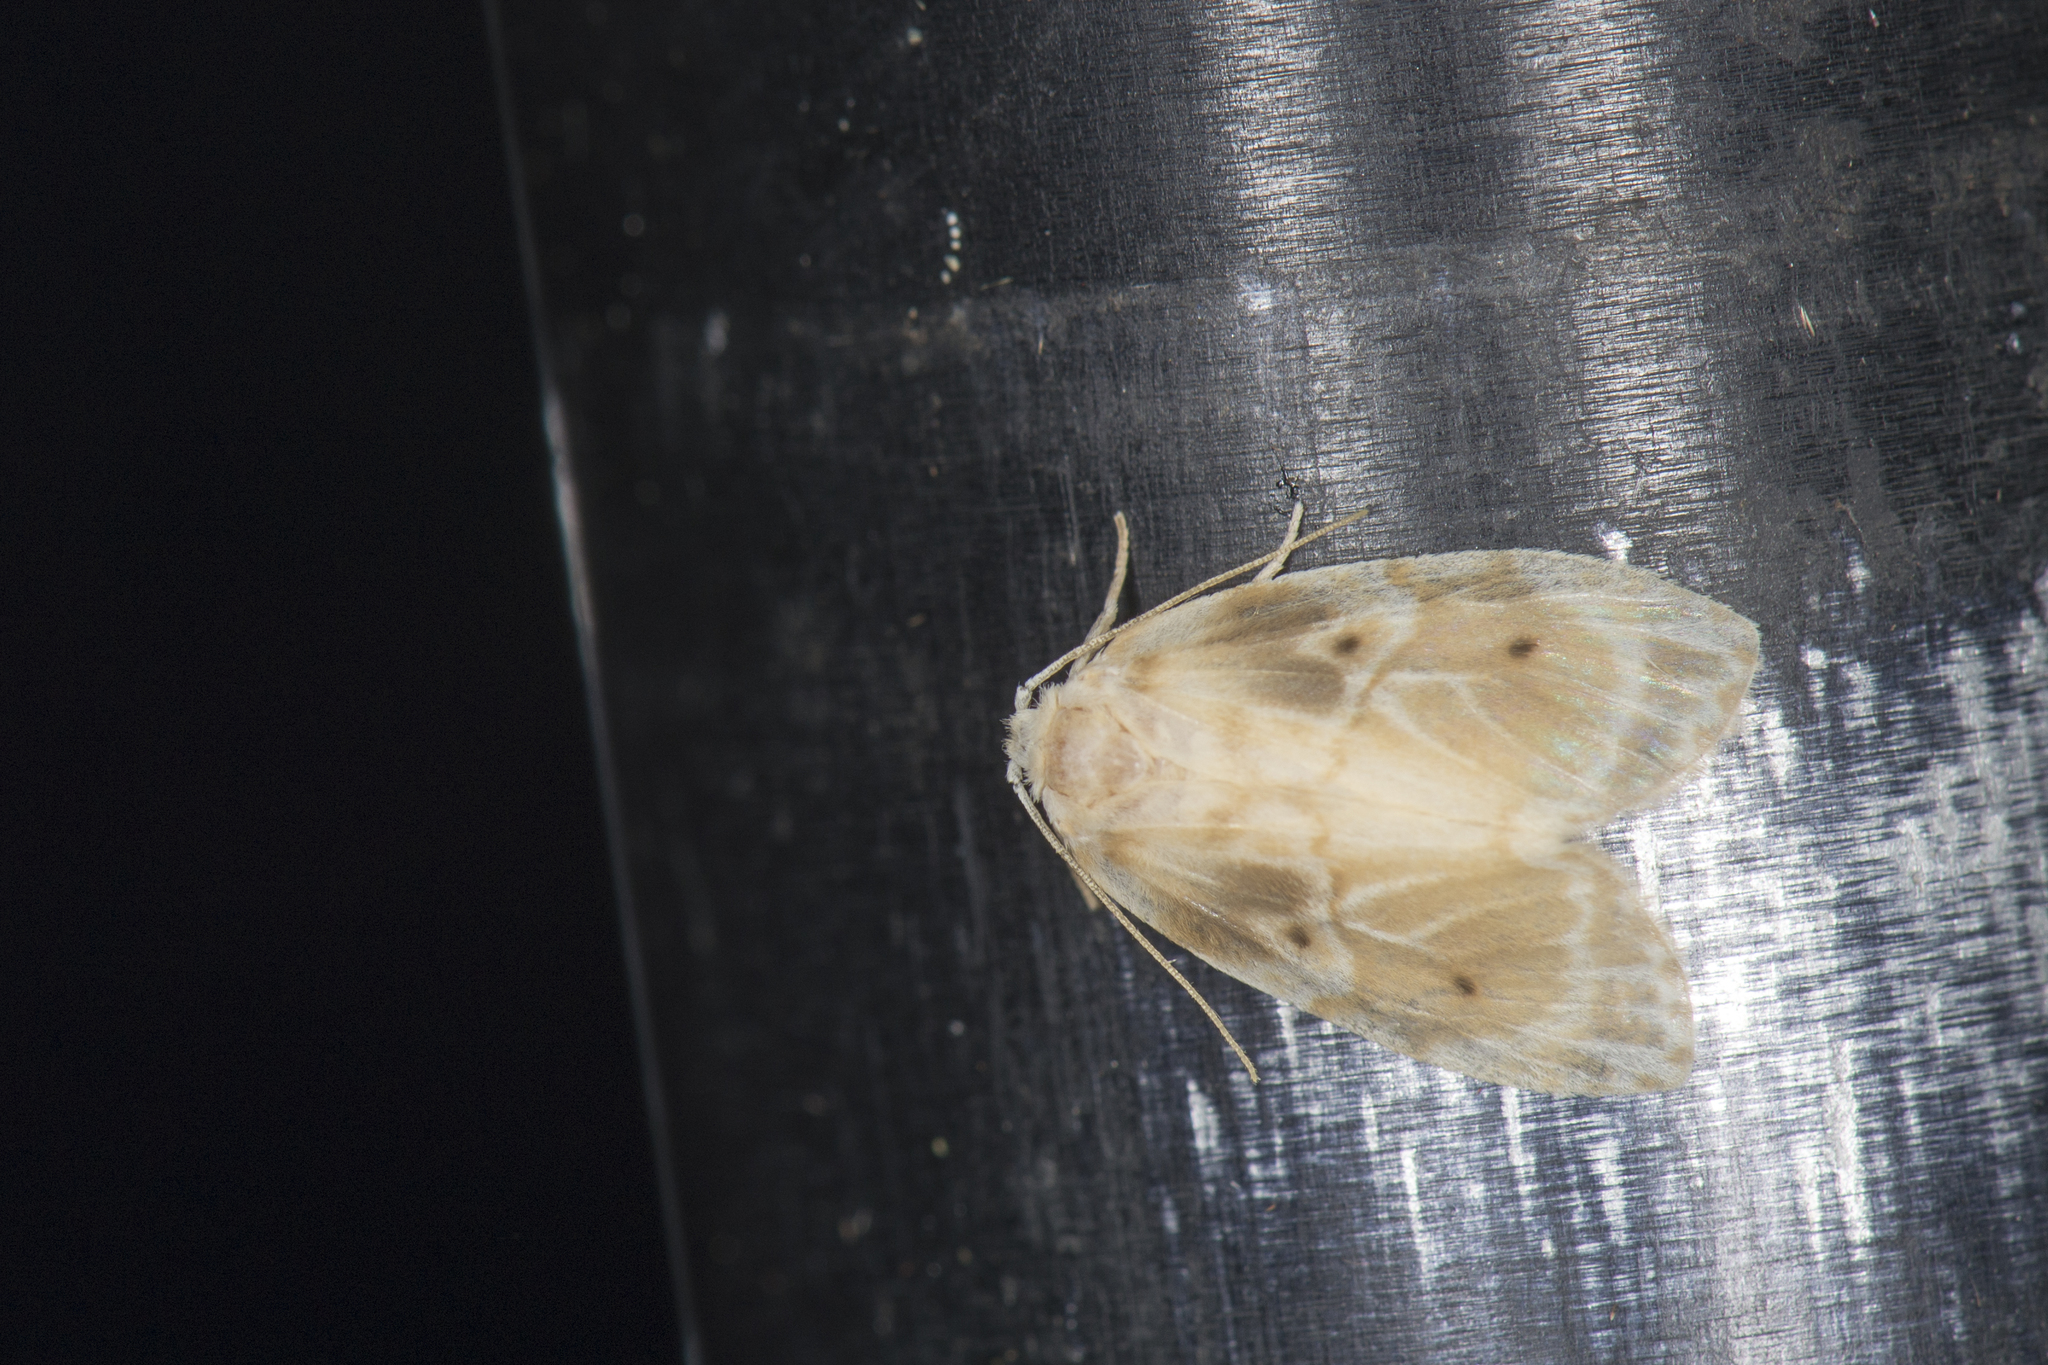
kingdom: Animalia
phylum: Arthropoda
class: Insecta
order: Lepidoptera
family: Erebidae
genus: Schistophleps
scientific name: Schistophleps bipuncta
